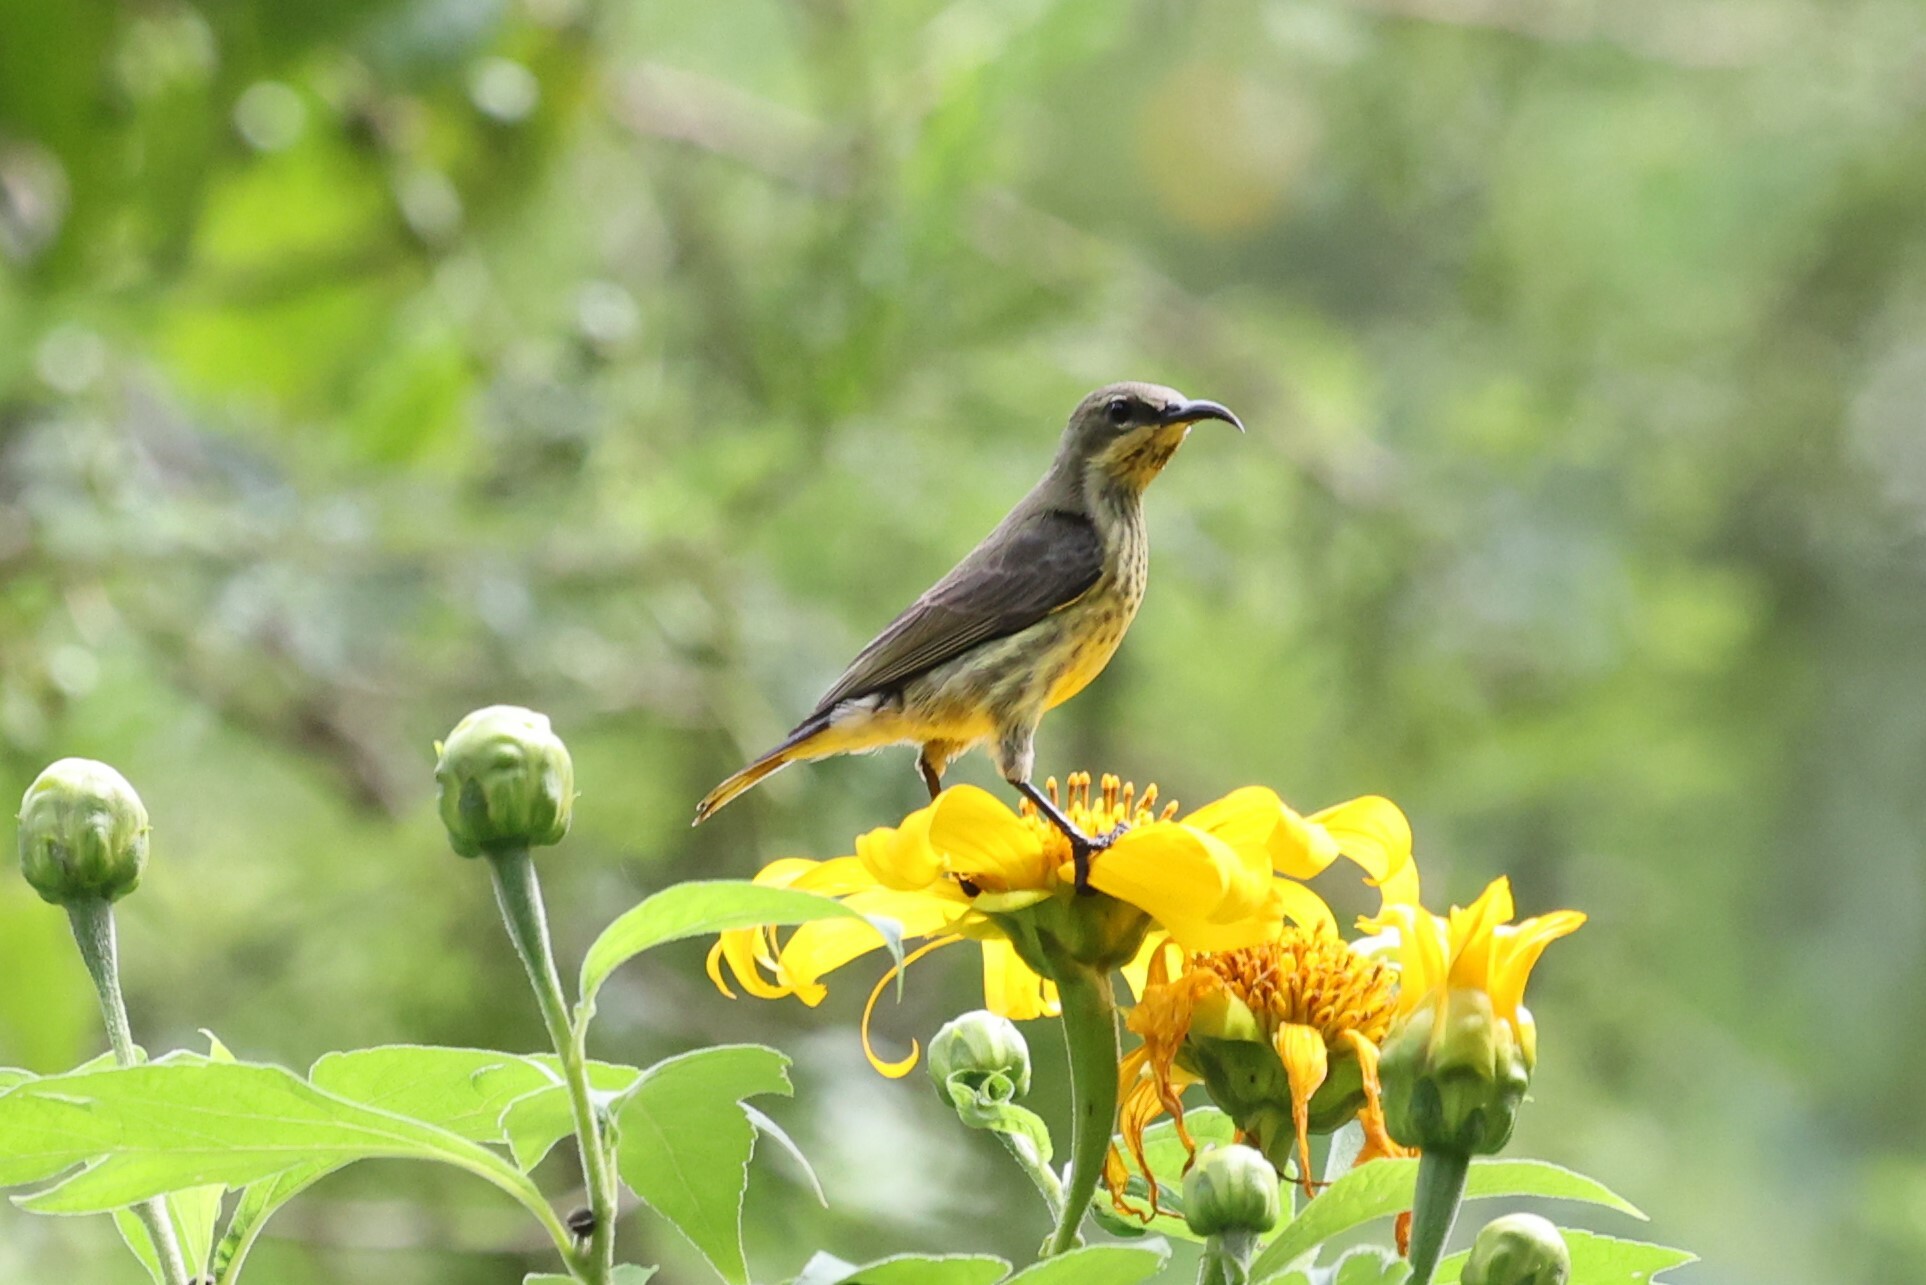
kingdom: Animalia
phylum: Chordata
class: Aves
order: Passeriformes
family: Nectariniidae
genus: Cinnyris
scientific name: Cinnyris erythrocercus
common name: Red-chested sunbird
